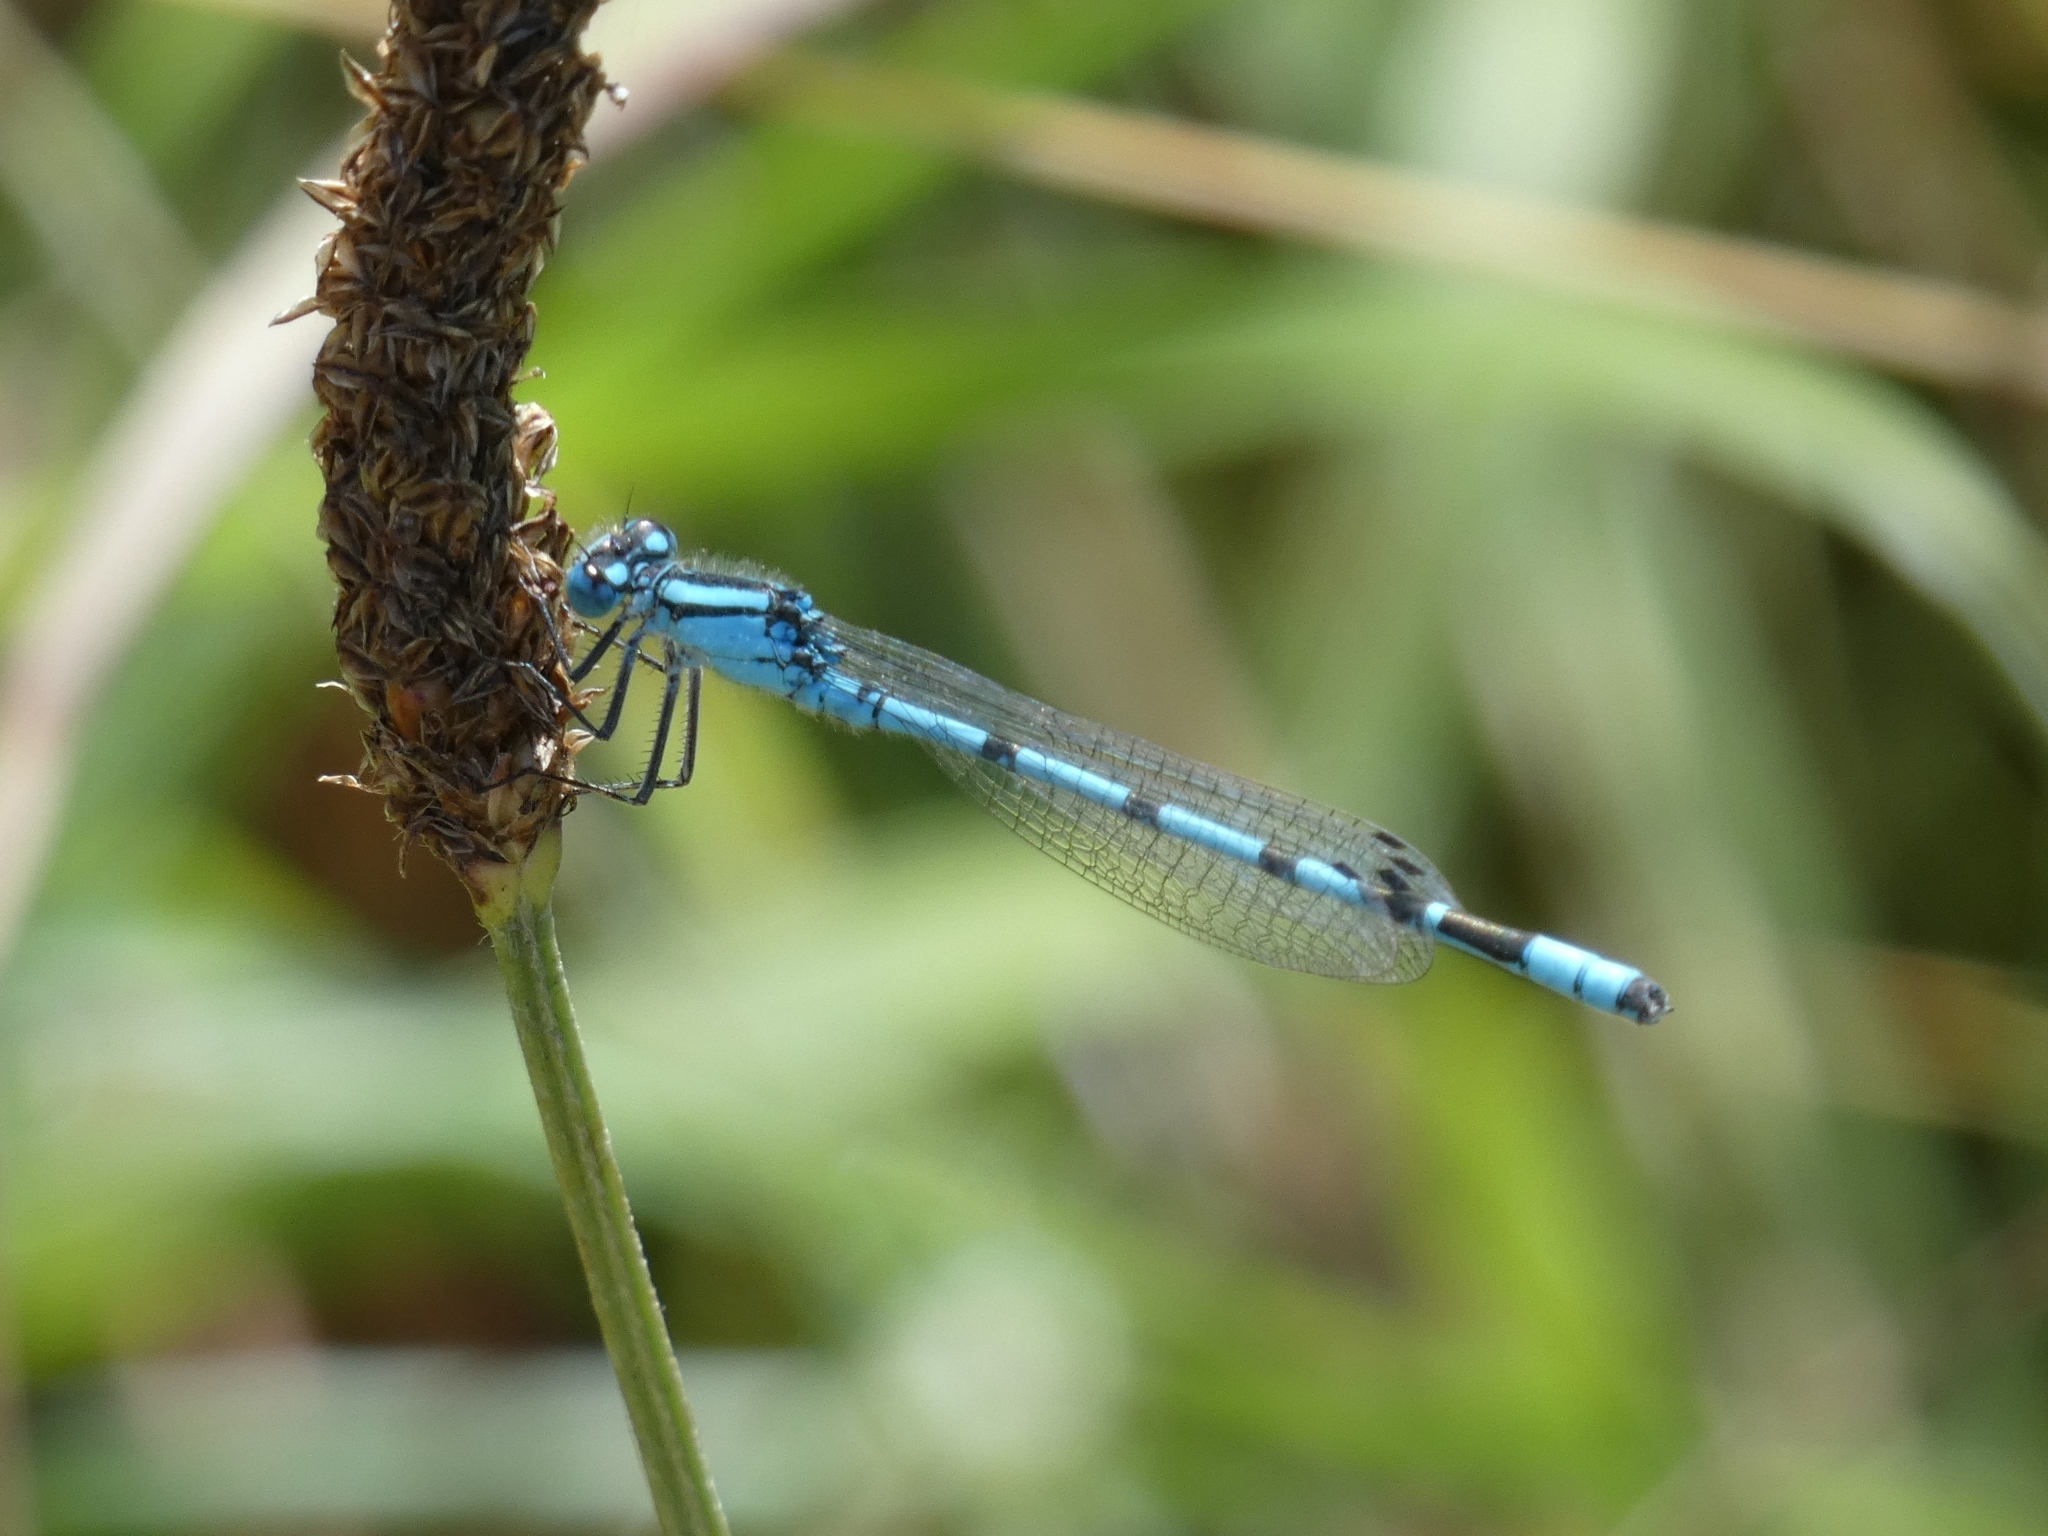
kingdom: Animalia
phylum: Arthropoda
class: Insecta
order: Odonata
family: Coenagrionidae
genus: Enallagma
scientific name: Enallagma cyathigerum
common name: Common blue damselfly
